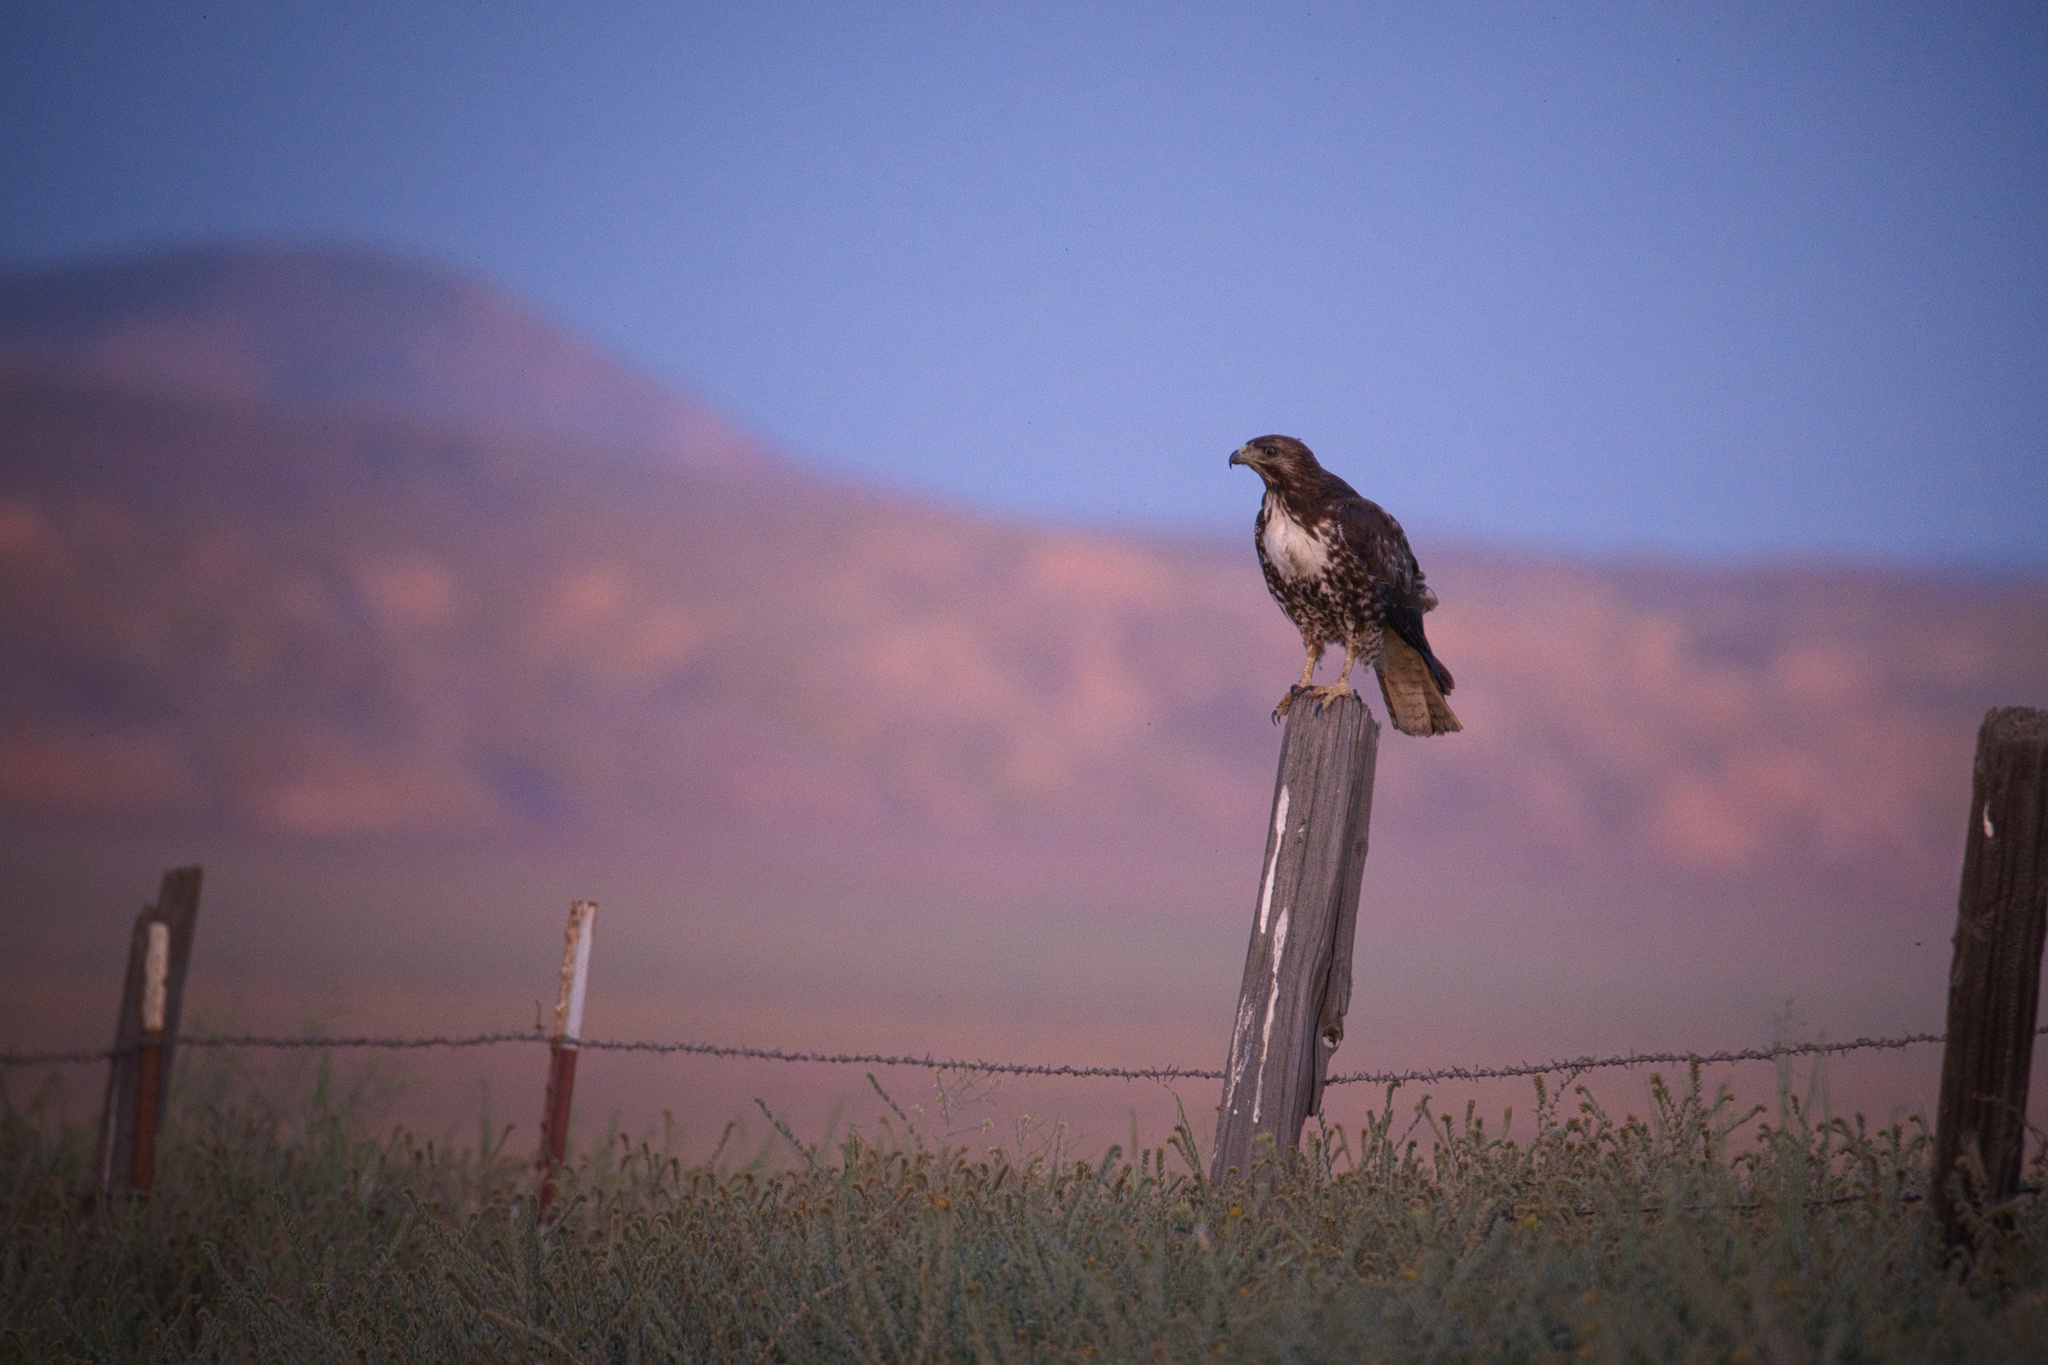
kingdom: Animalia
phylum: Chordata
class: Aves
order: Accipitriformes
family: Accipitridae
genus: Buteo
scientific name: Buteo jamaicensis
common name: Red-tailed hawk
